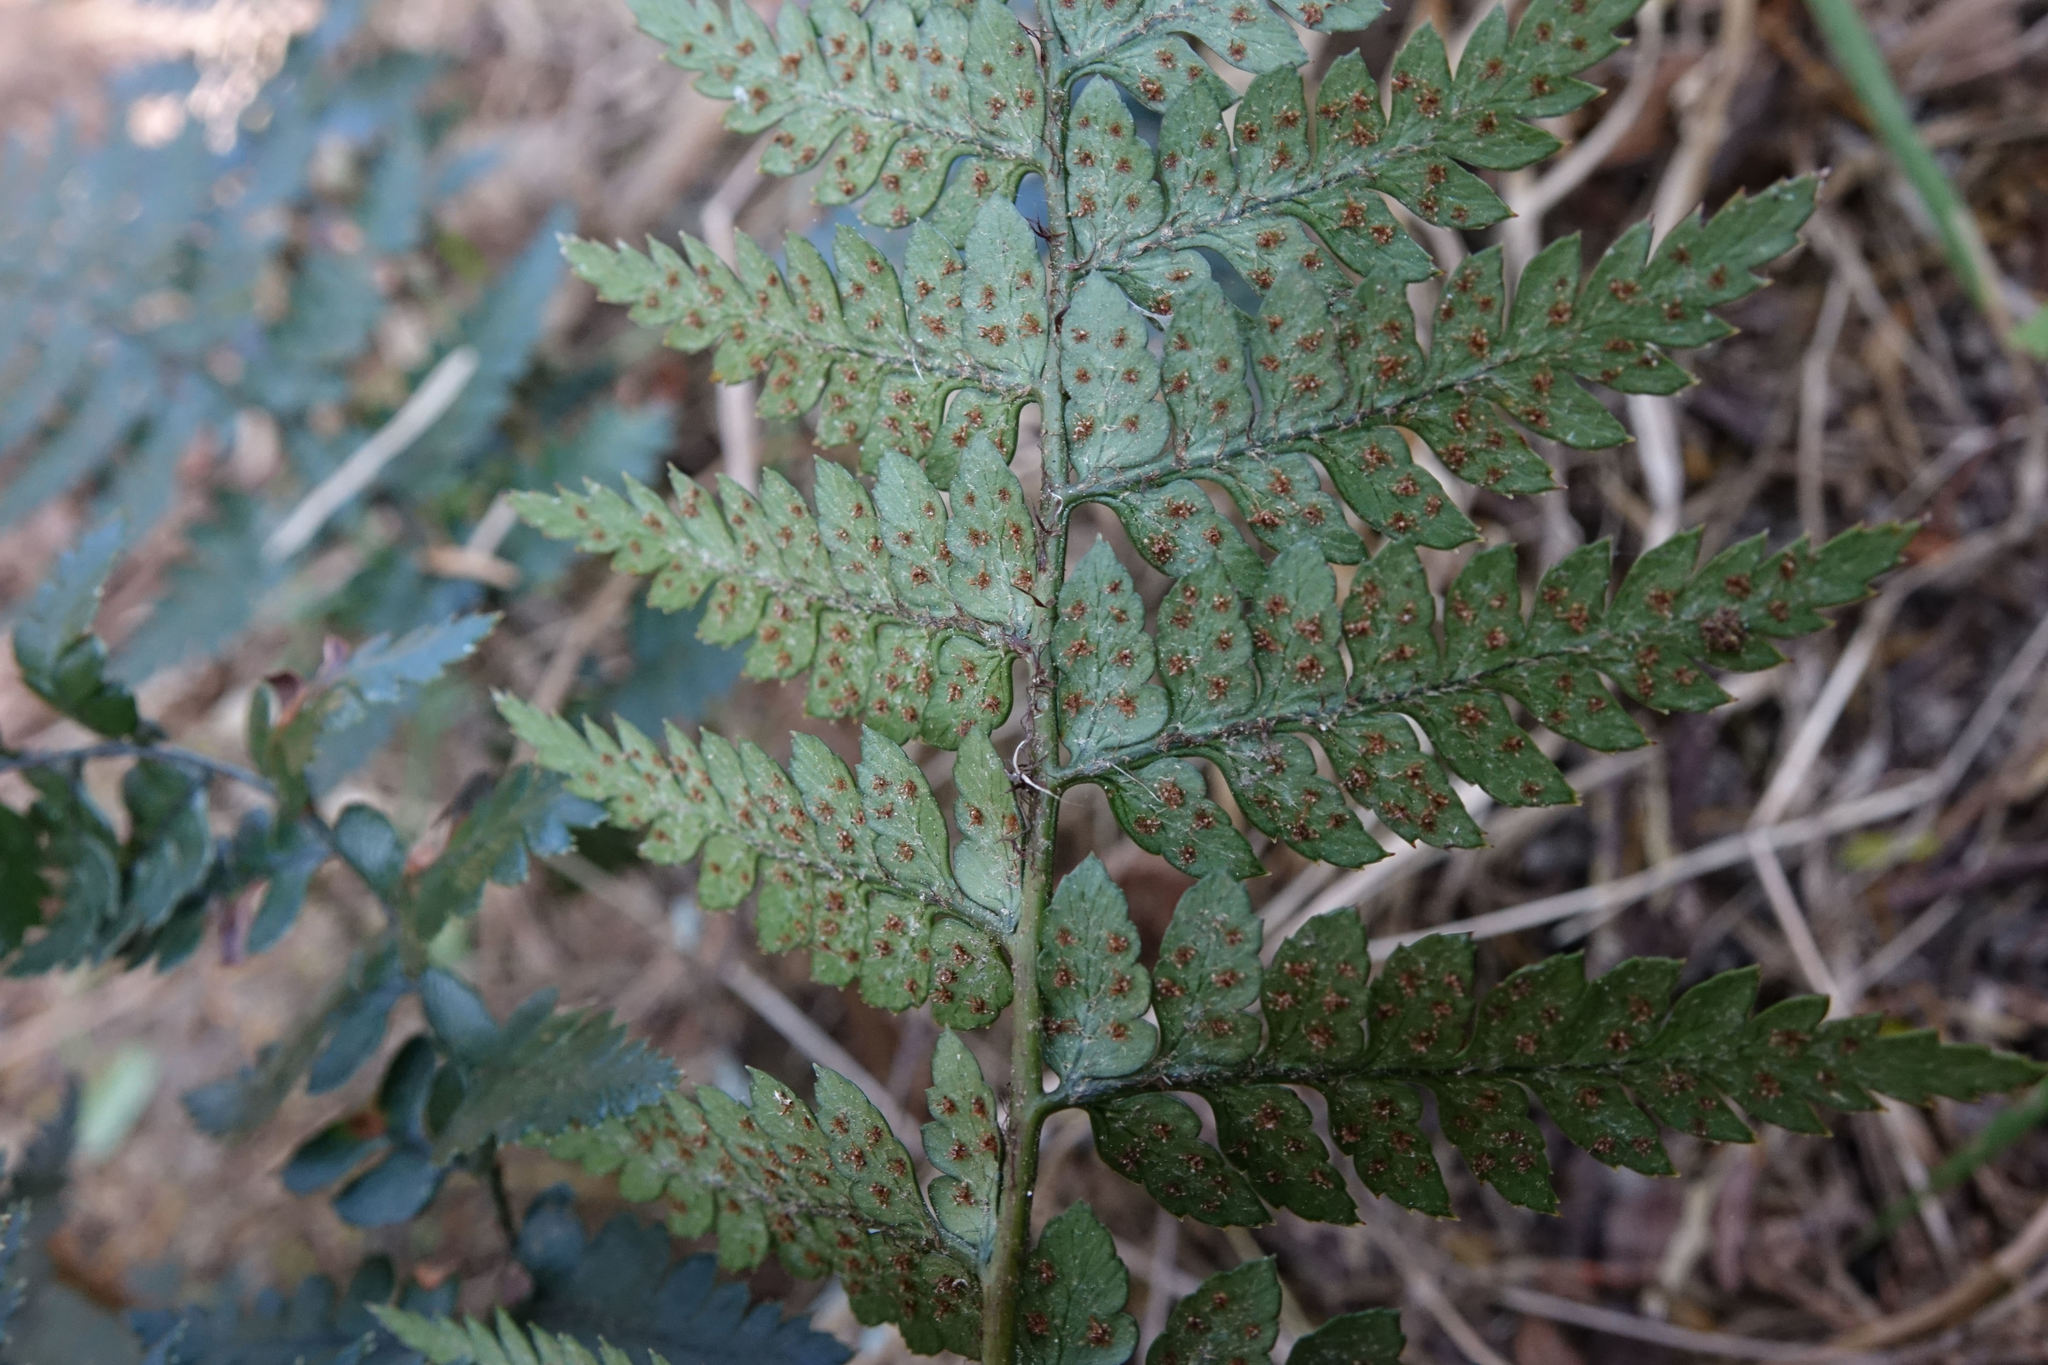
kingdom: Plantae
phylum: Tracheophyta
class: Polypodiopsida
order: Polypodiales
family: Dryopteridaceae
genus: Polystichum
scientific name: Polystichum neozelandicum
